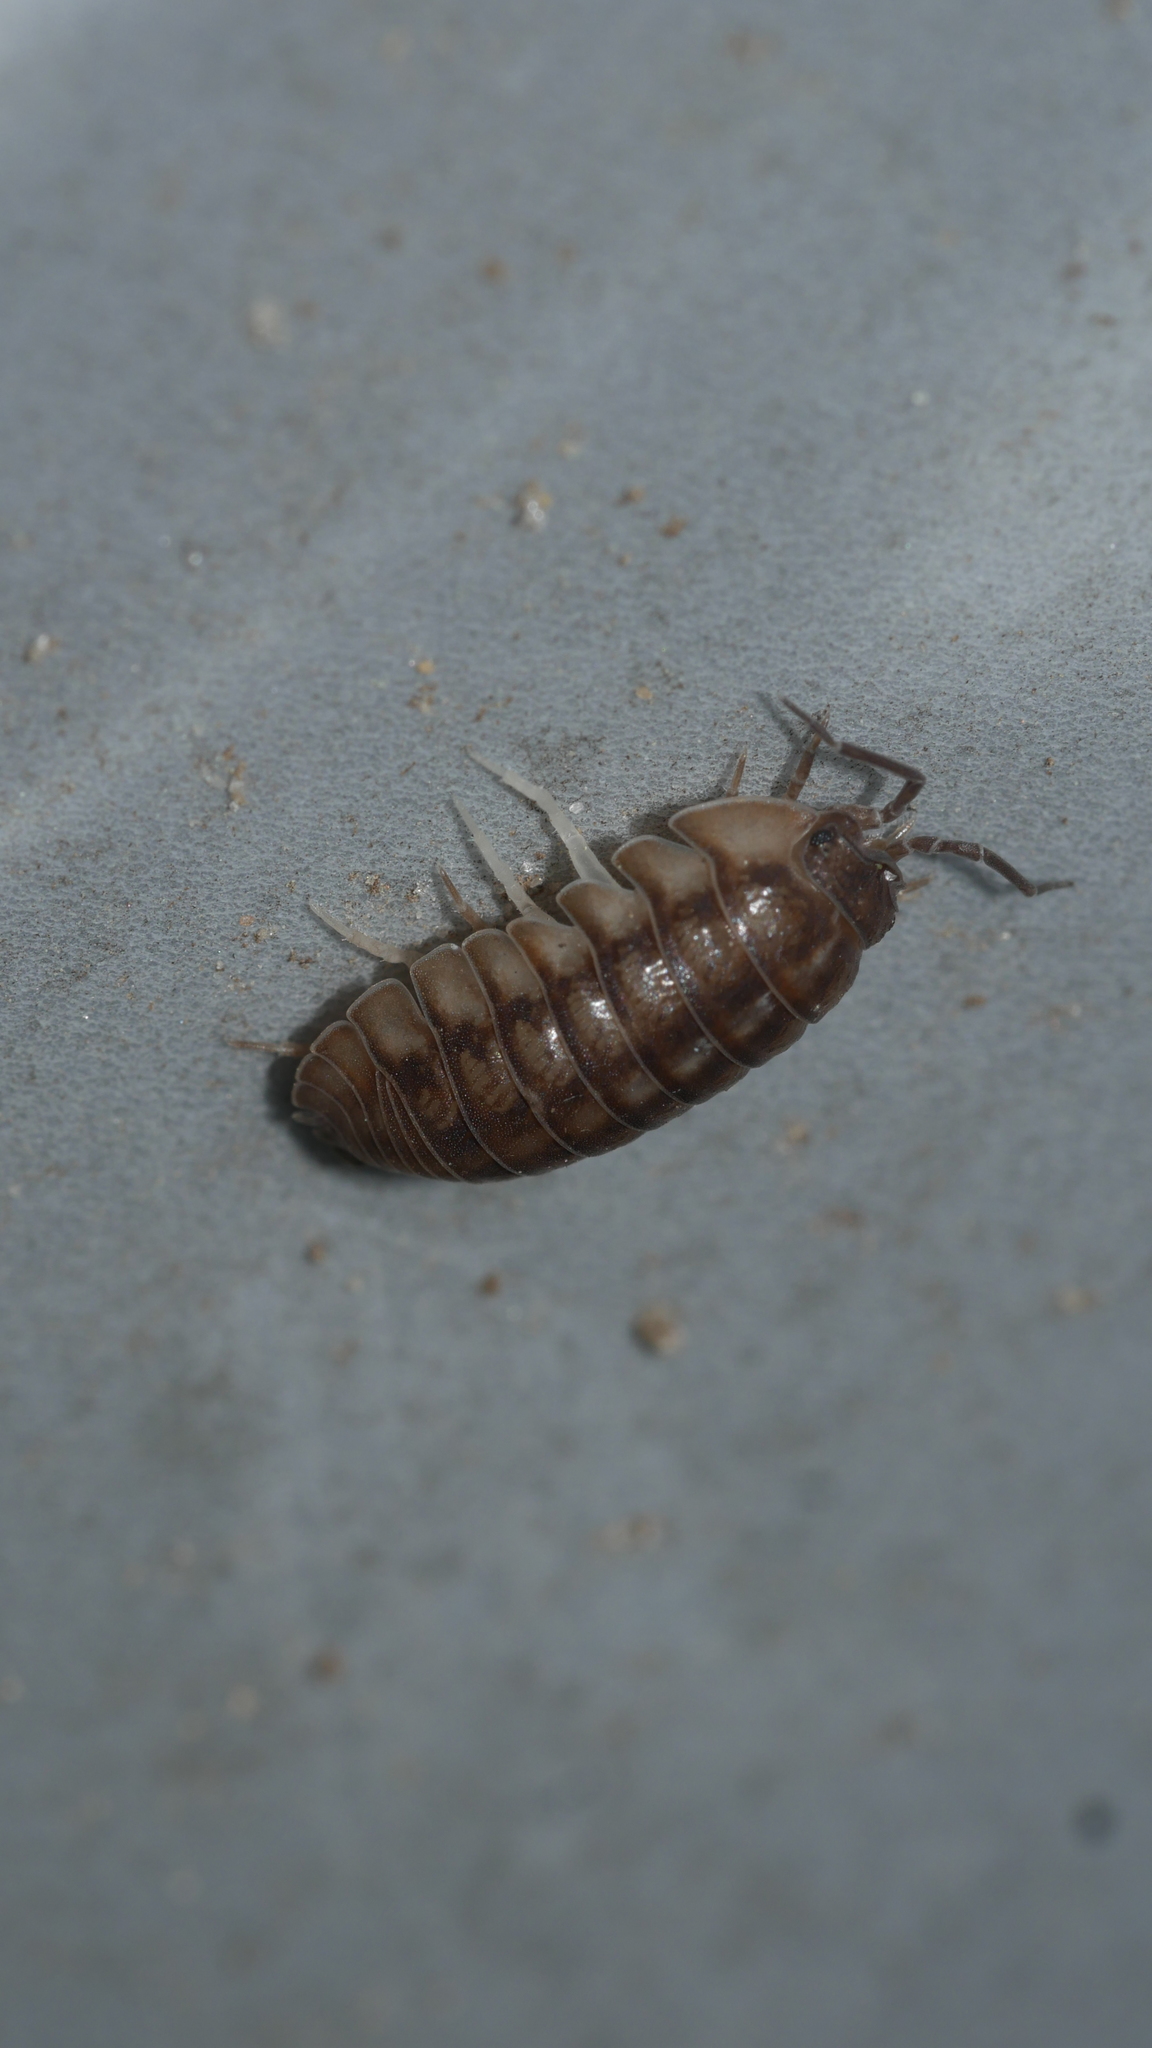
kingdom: Animalia
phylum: Arthropoda
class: Malacostraca
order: Isopoda
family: Armadillidiidae
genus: Armadillidium
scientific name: Armadillidium nasatum
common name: Isopod
